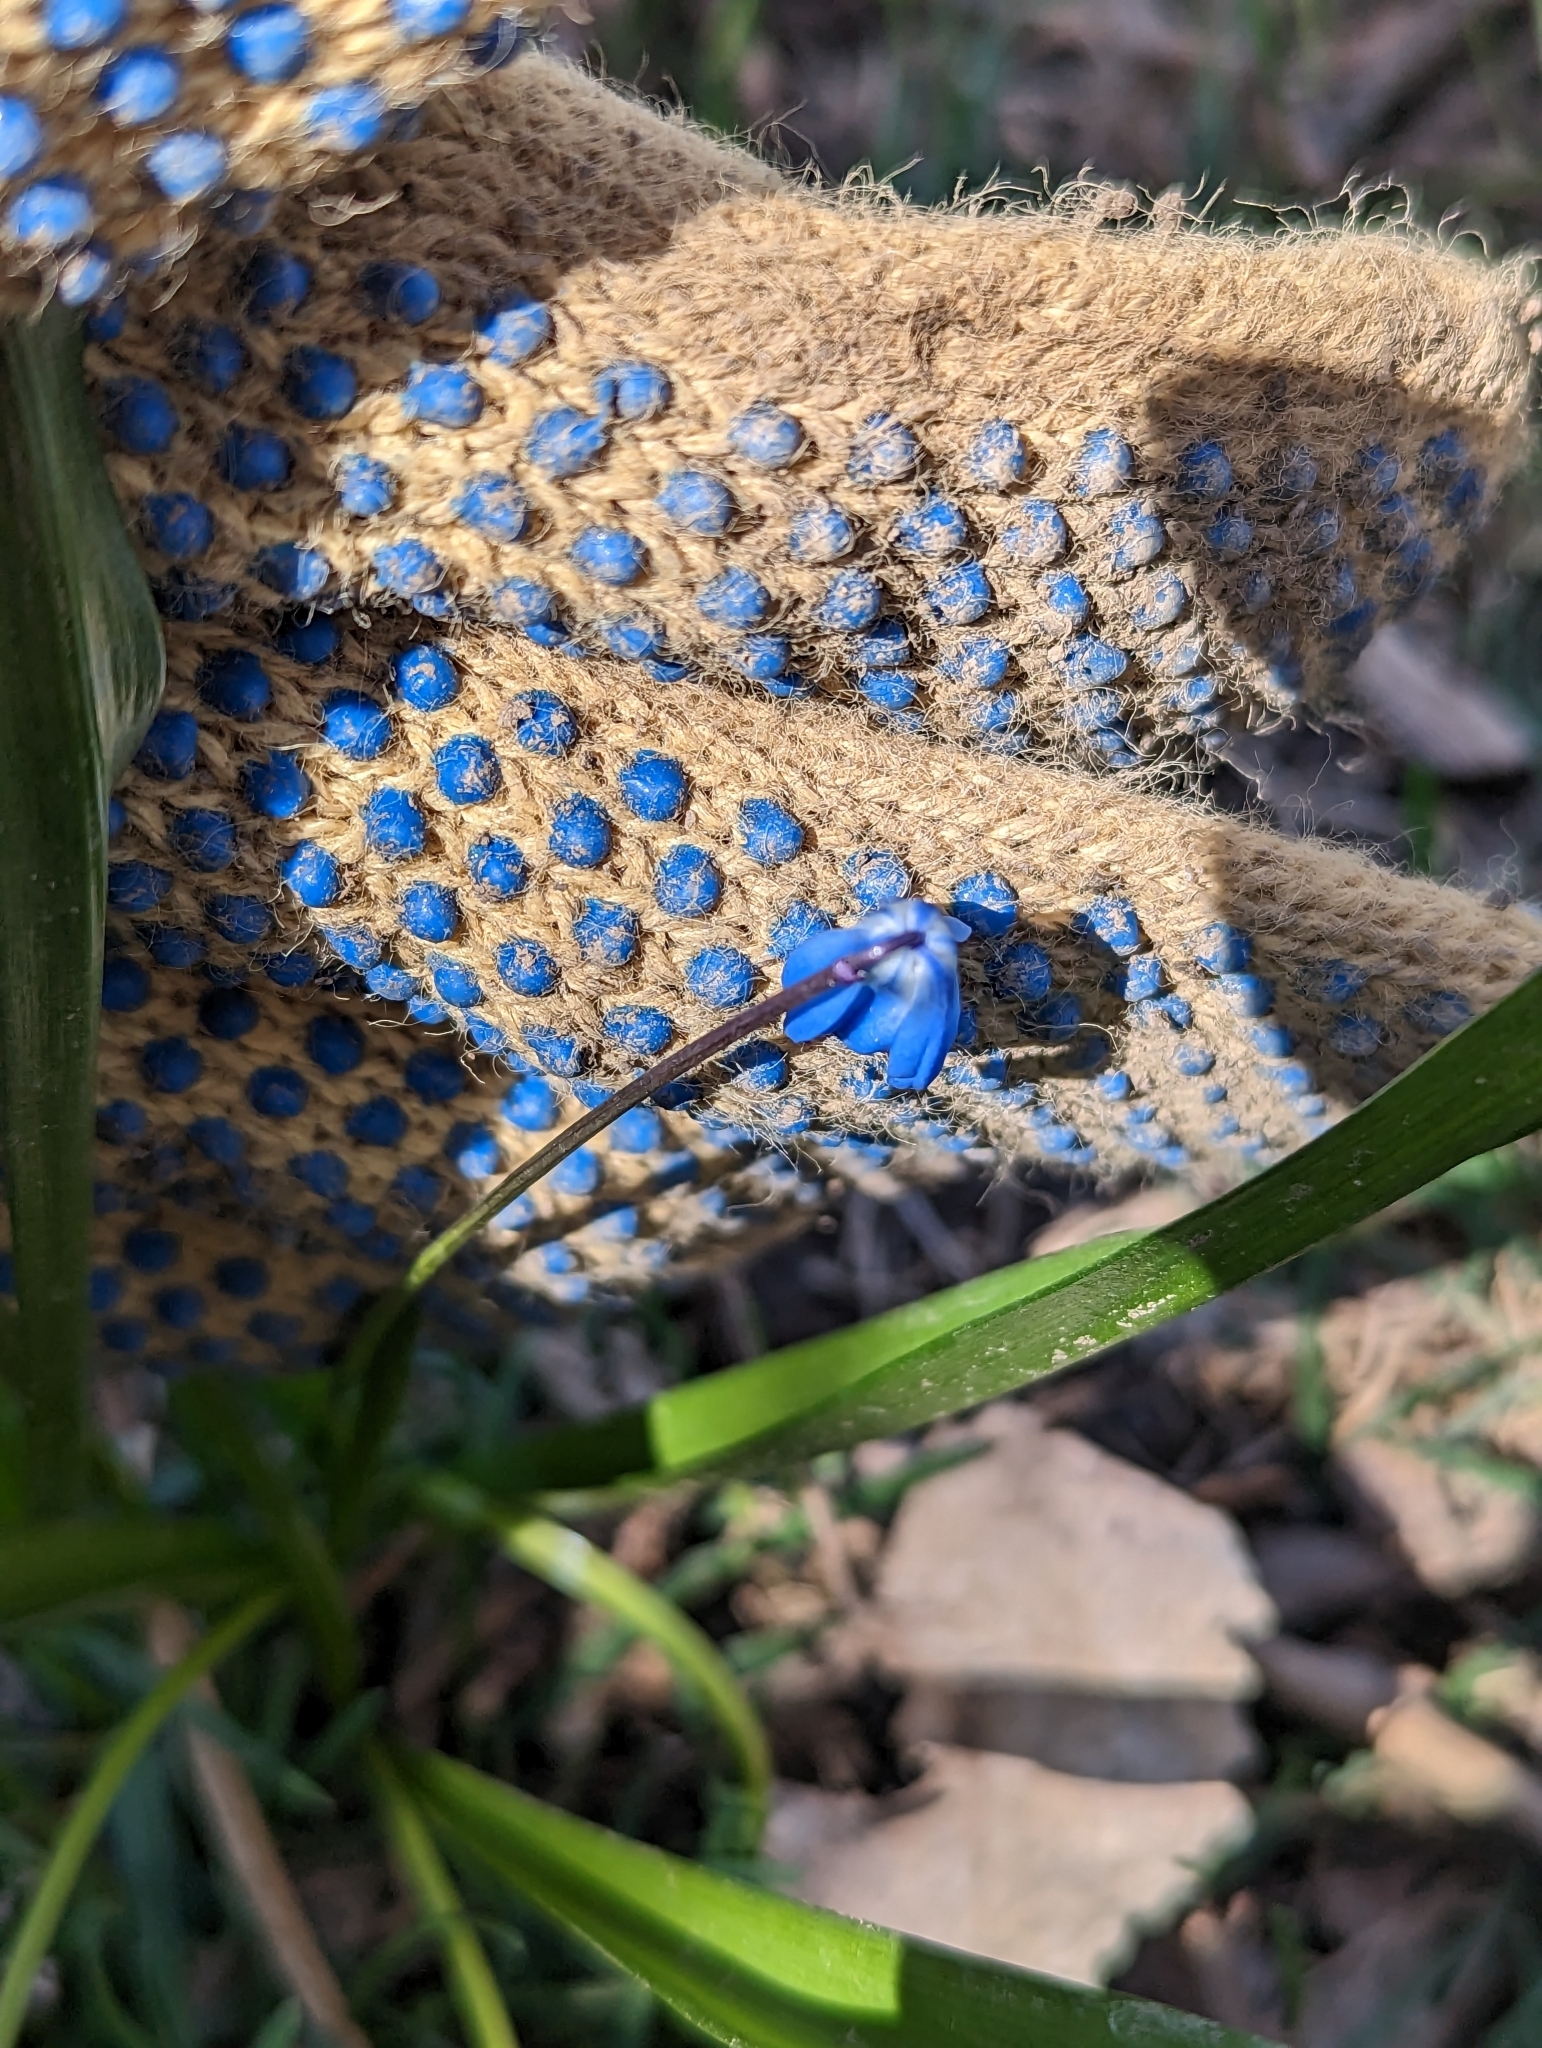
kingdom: Plantae
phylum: Tracheophyta
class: Liliopsida
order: Asparagales
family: Asparagaceae
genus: Scilla
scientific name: Scilla siberica
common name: Siberian squill
